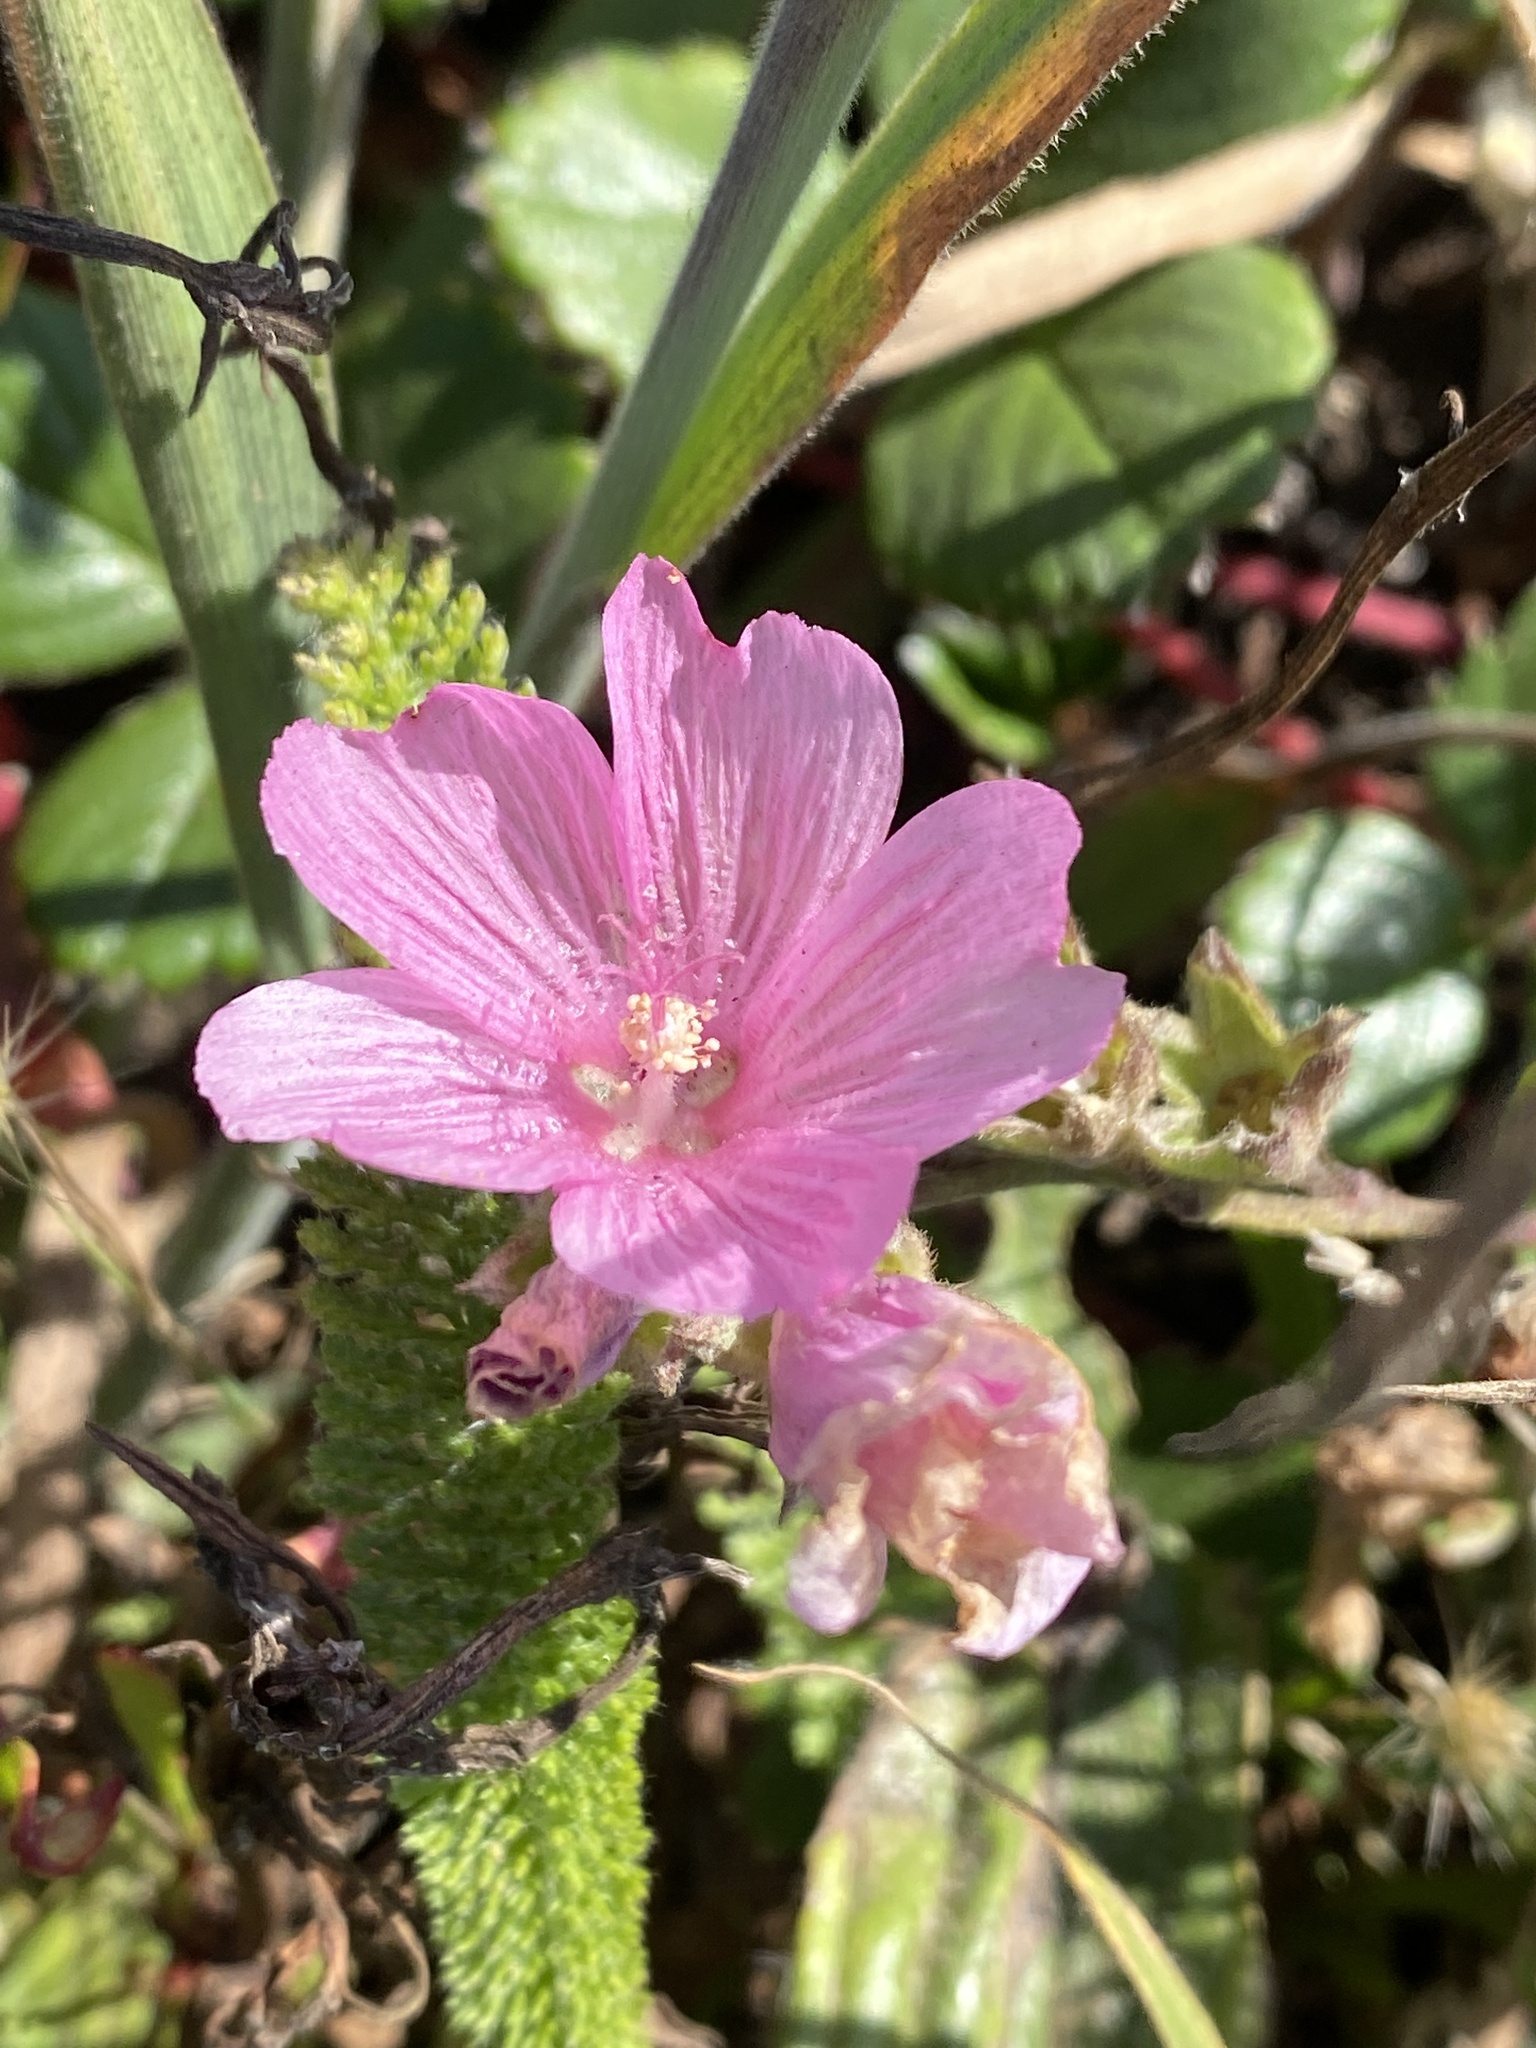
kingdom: Plantae
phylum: Tracheophyta
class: Magnoliopsida
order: Malvales
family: Malvaceae
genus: Sidalcea
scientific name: Sidalcea malviflora
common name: Greek mallow
